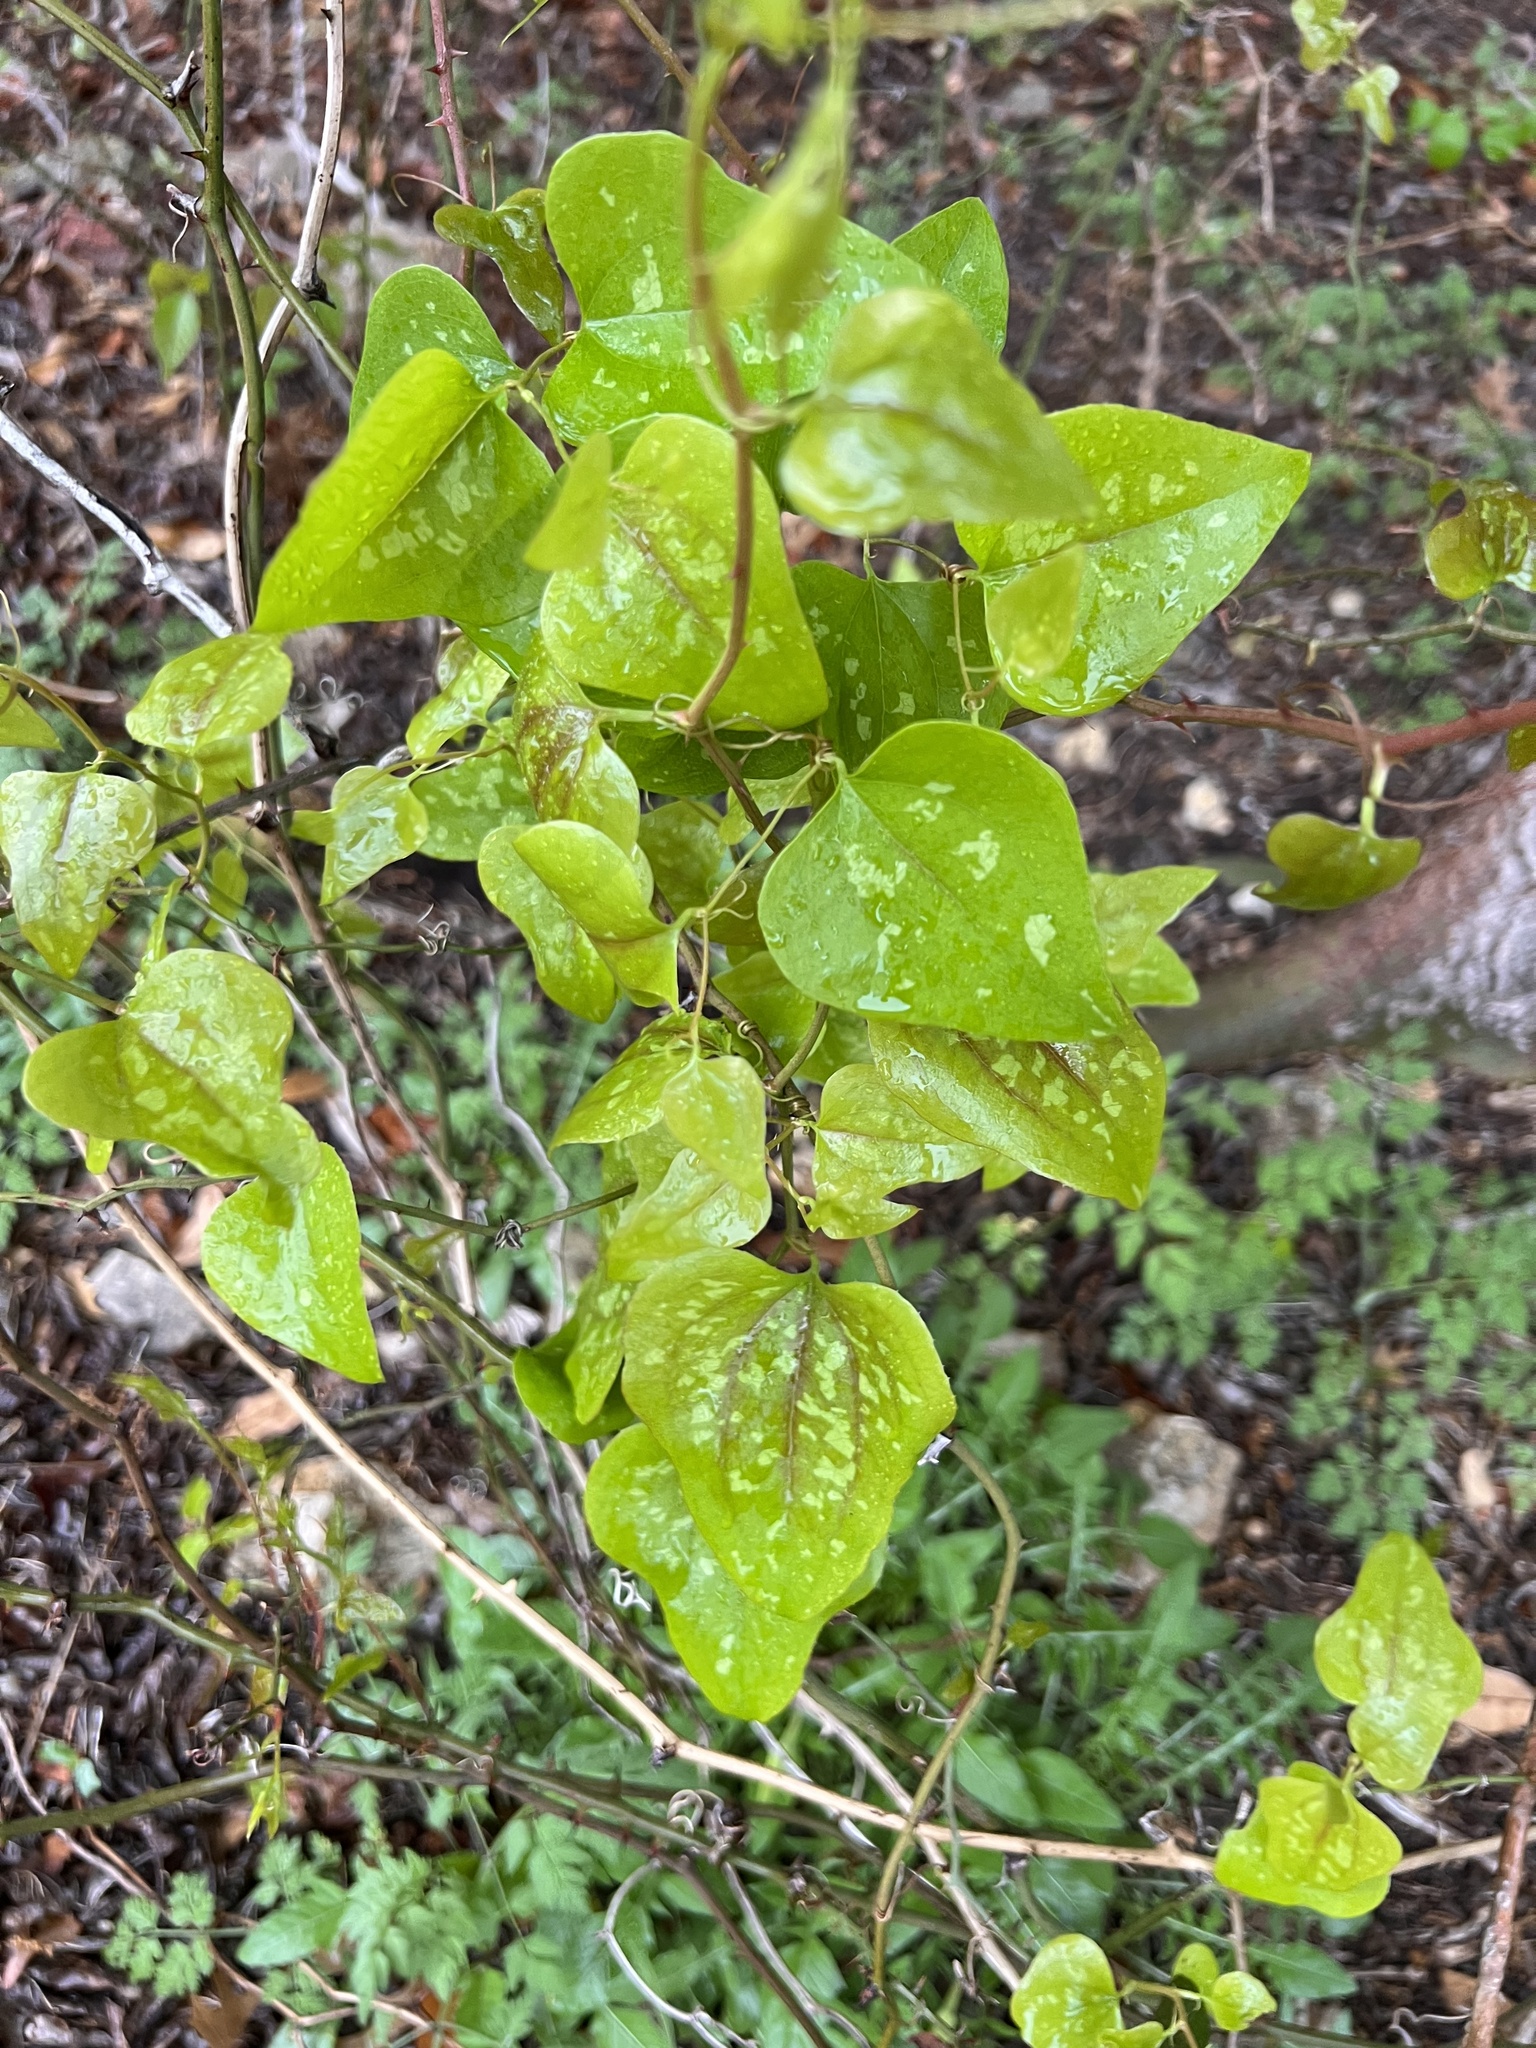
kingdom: Plantae
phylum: Tracheophyta
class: Liliopsida
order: Liliales
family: Smilacaceae
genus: Smilax
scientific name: Smilax bona-nox
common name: Catbrier
